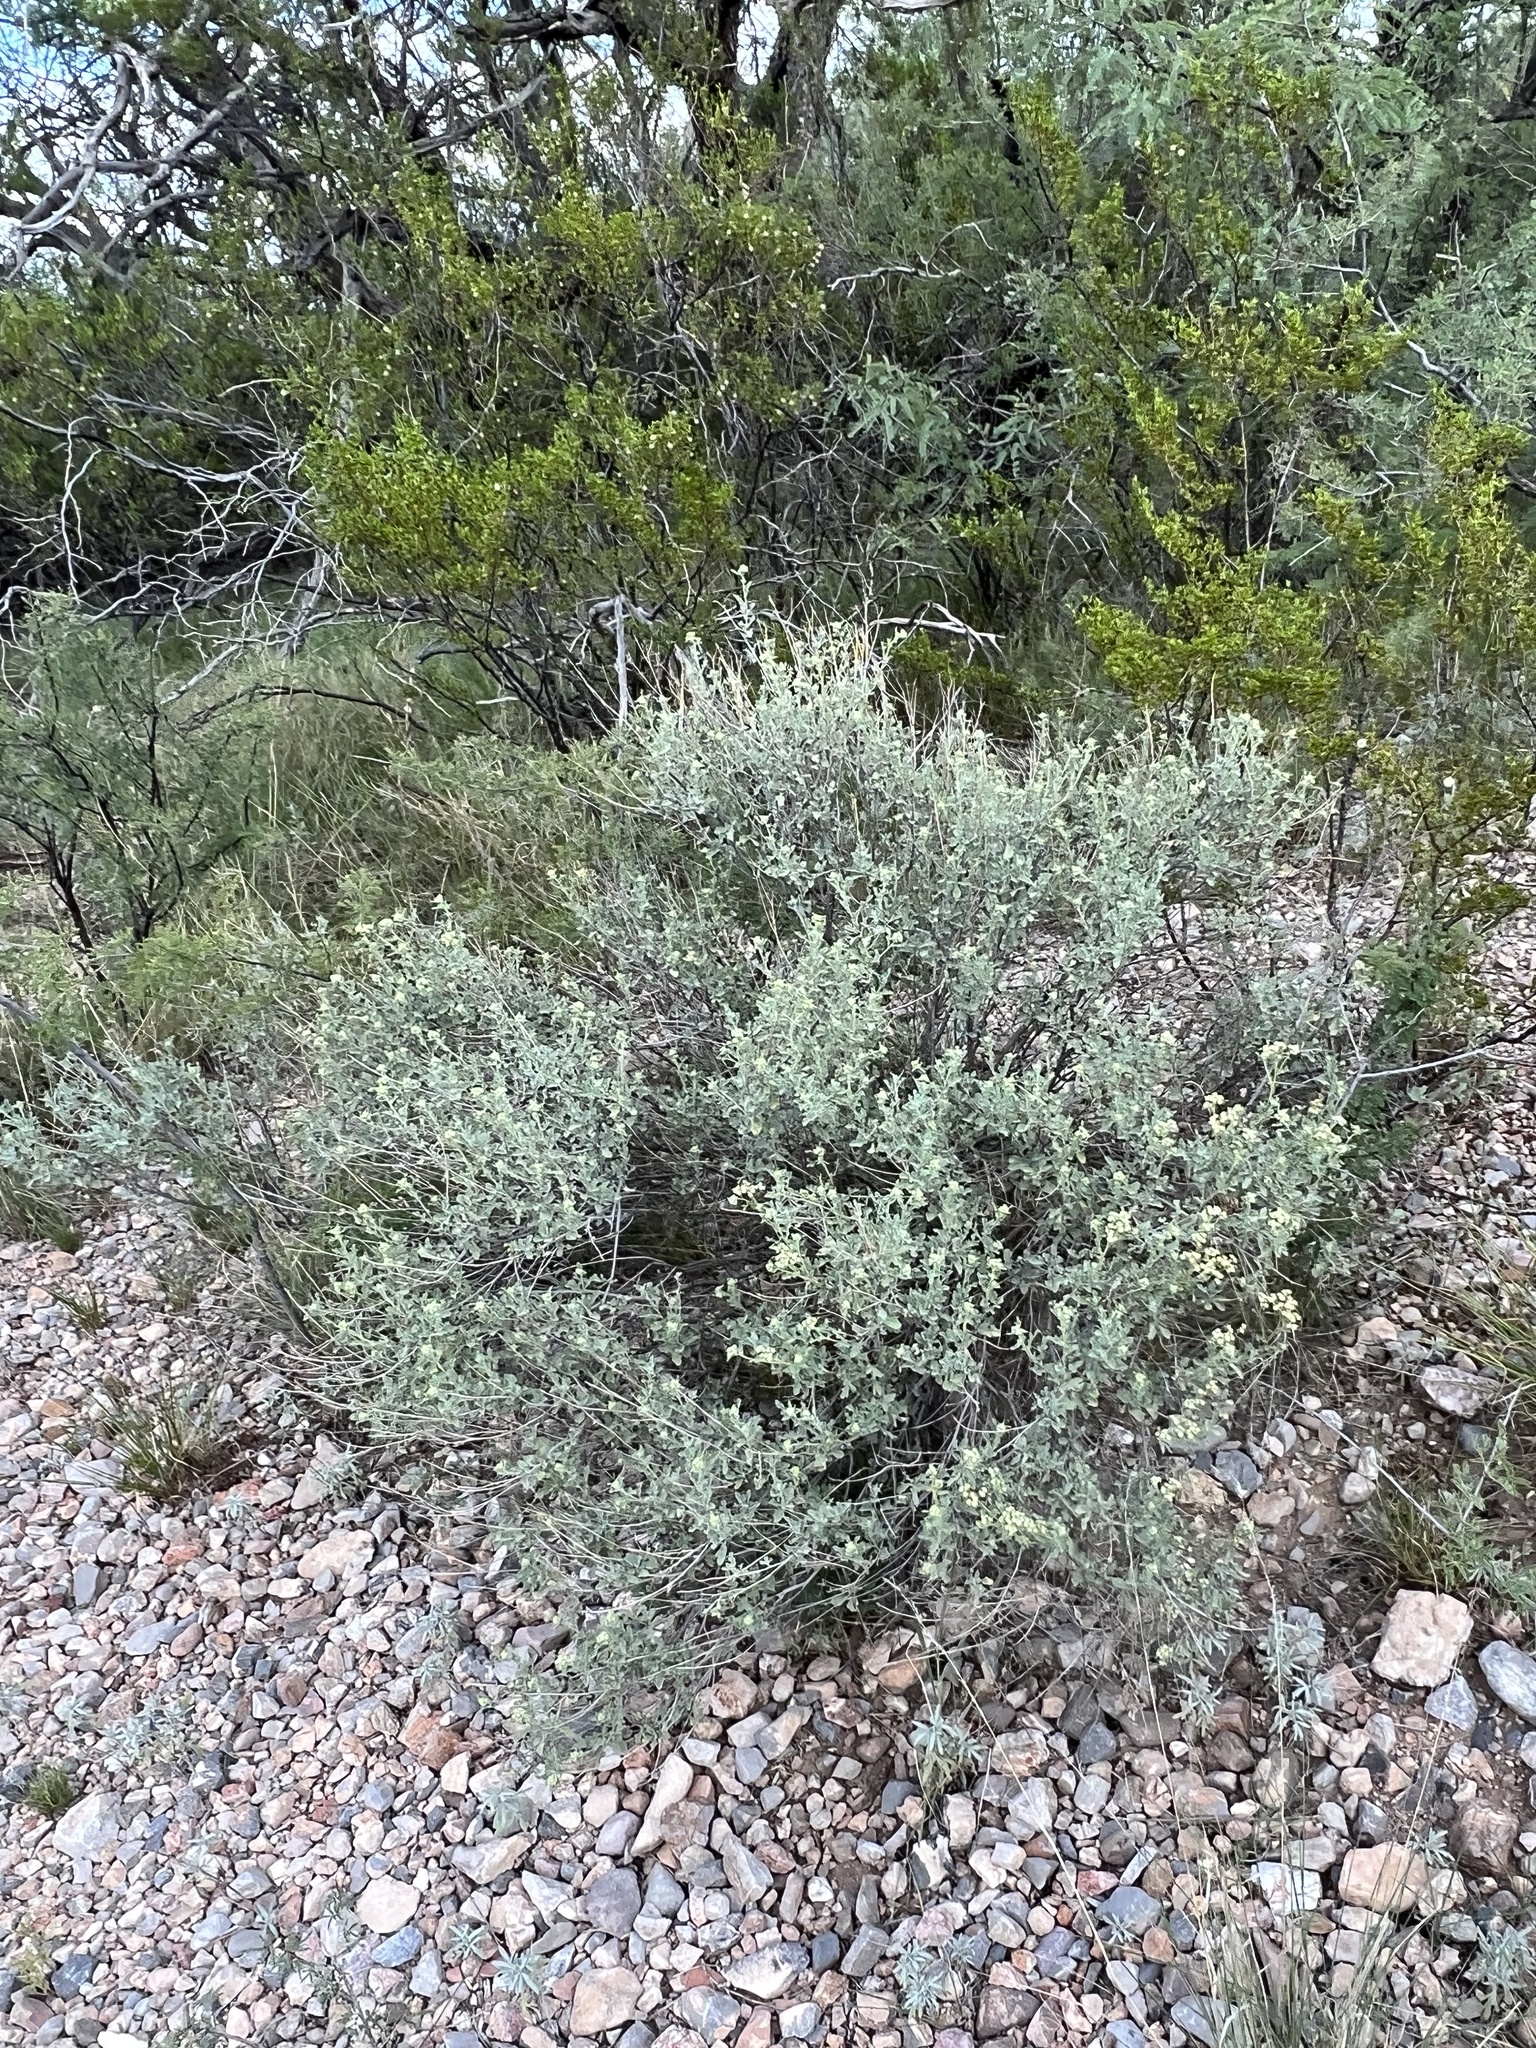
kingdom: Plantae
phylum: Tracheophyta
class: Magnoliopsida
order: Asterales
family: Asteraceae
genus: Parthenium
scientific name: Parthenium incanum
